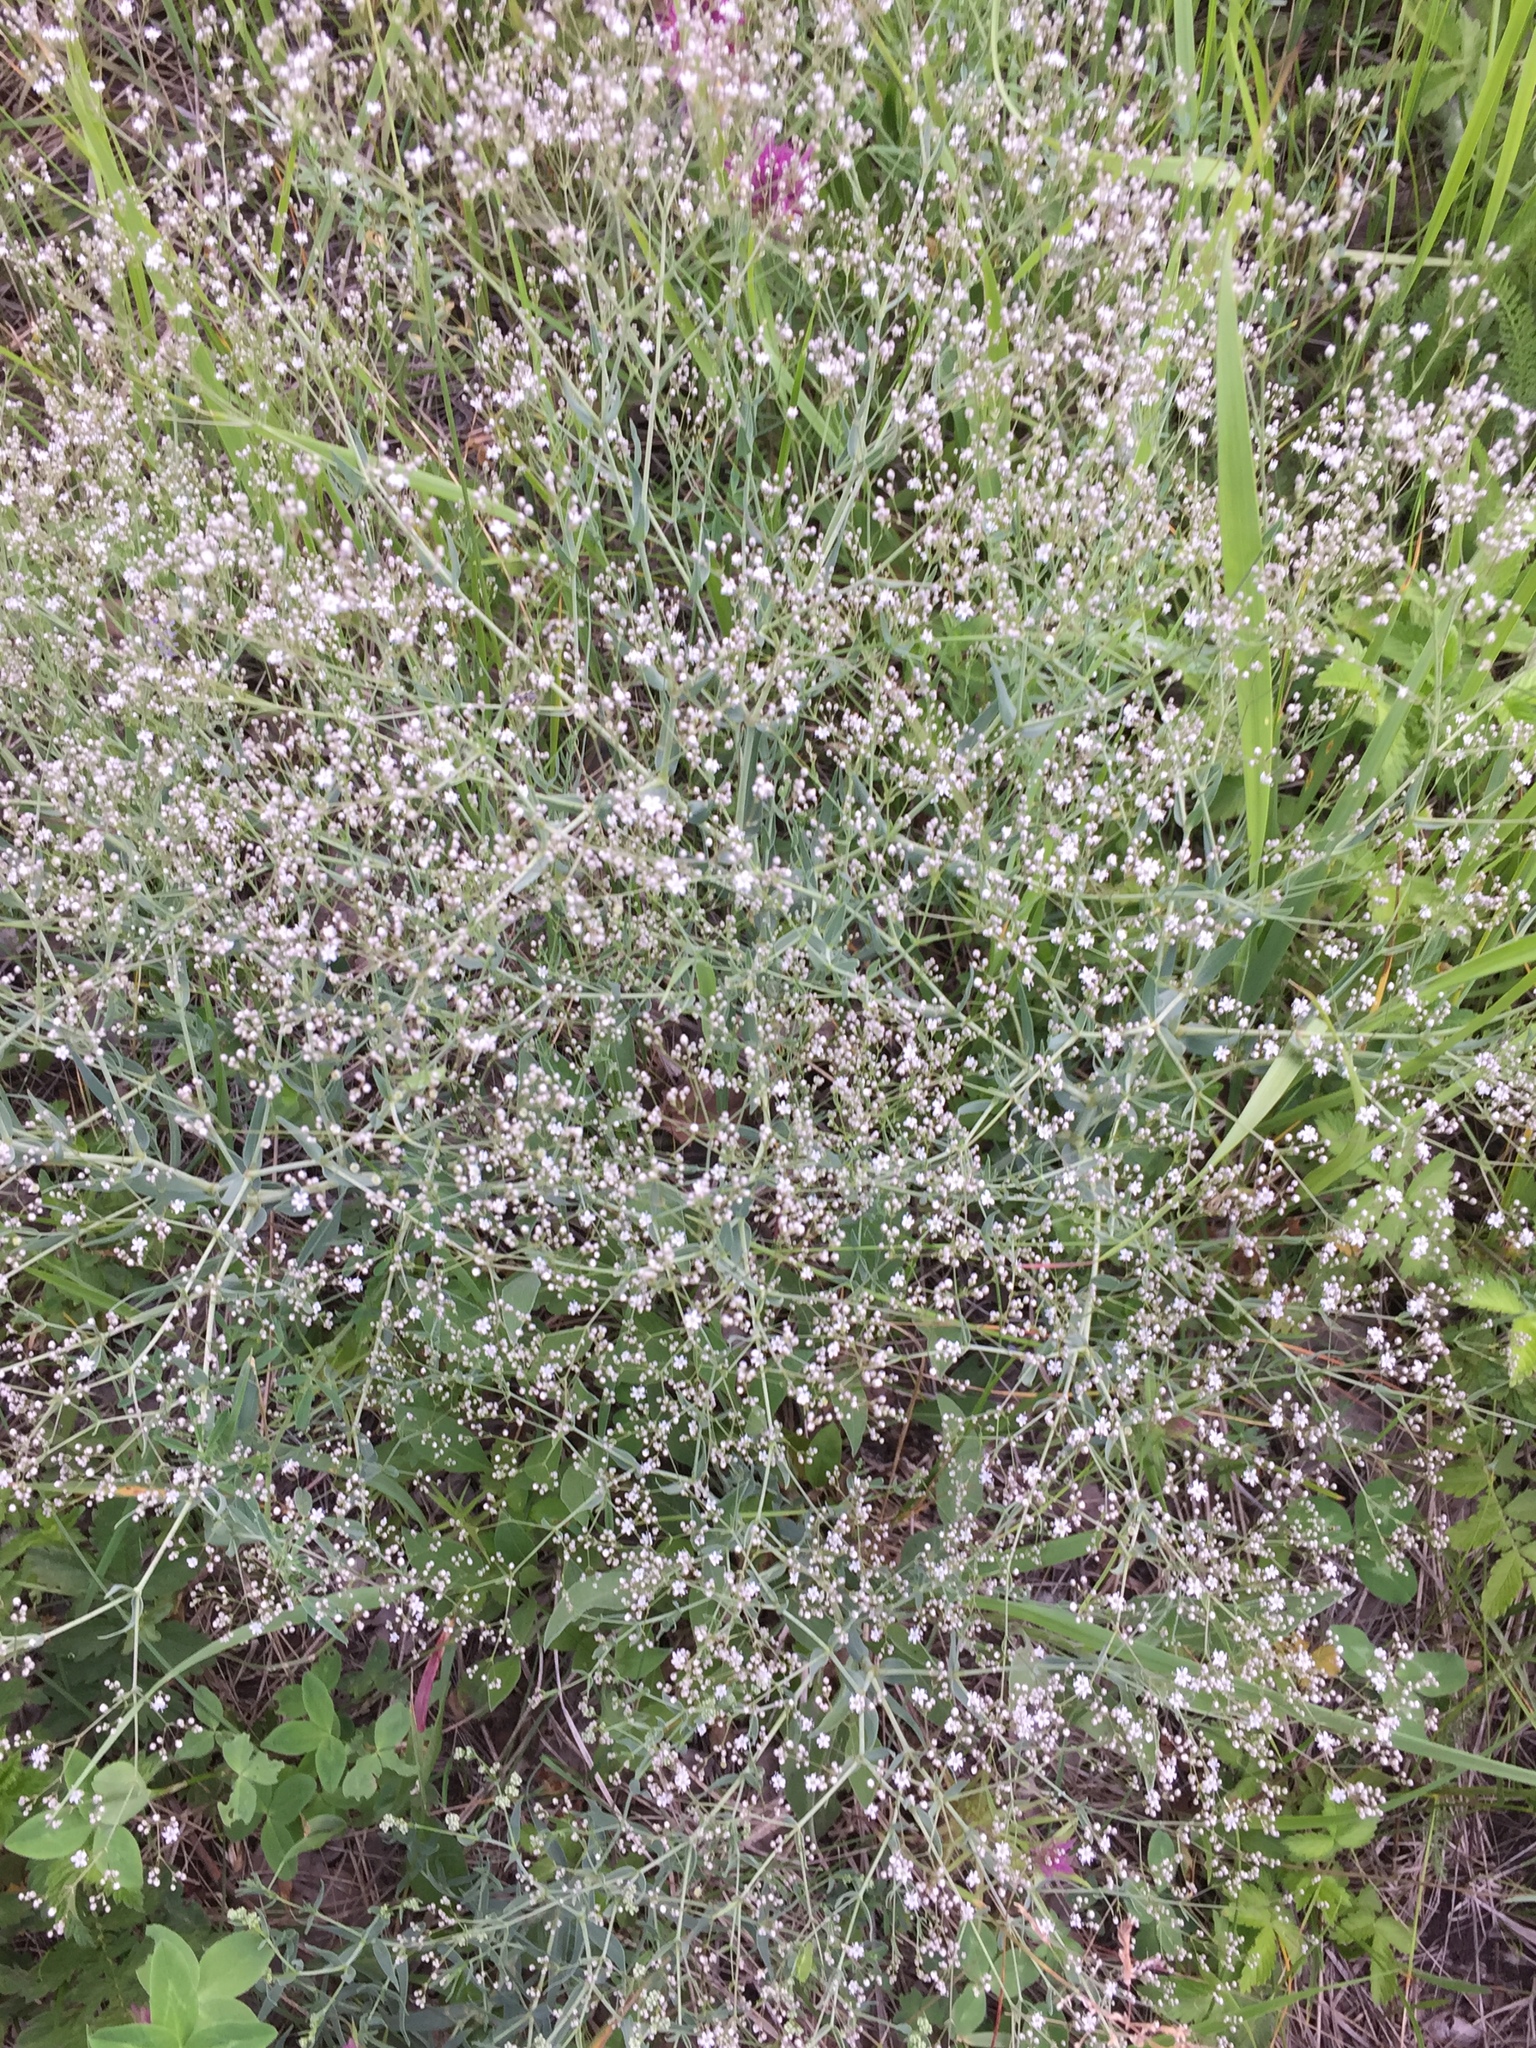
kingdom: Plantae
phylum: Tracheophyta
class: Magnoliopsida
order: Caryophyllales
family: Caryophyllaceae
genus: Gypsophila
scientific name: Gypsophila paniculata
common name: Baby's-breath
